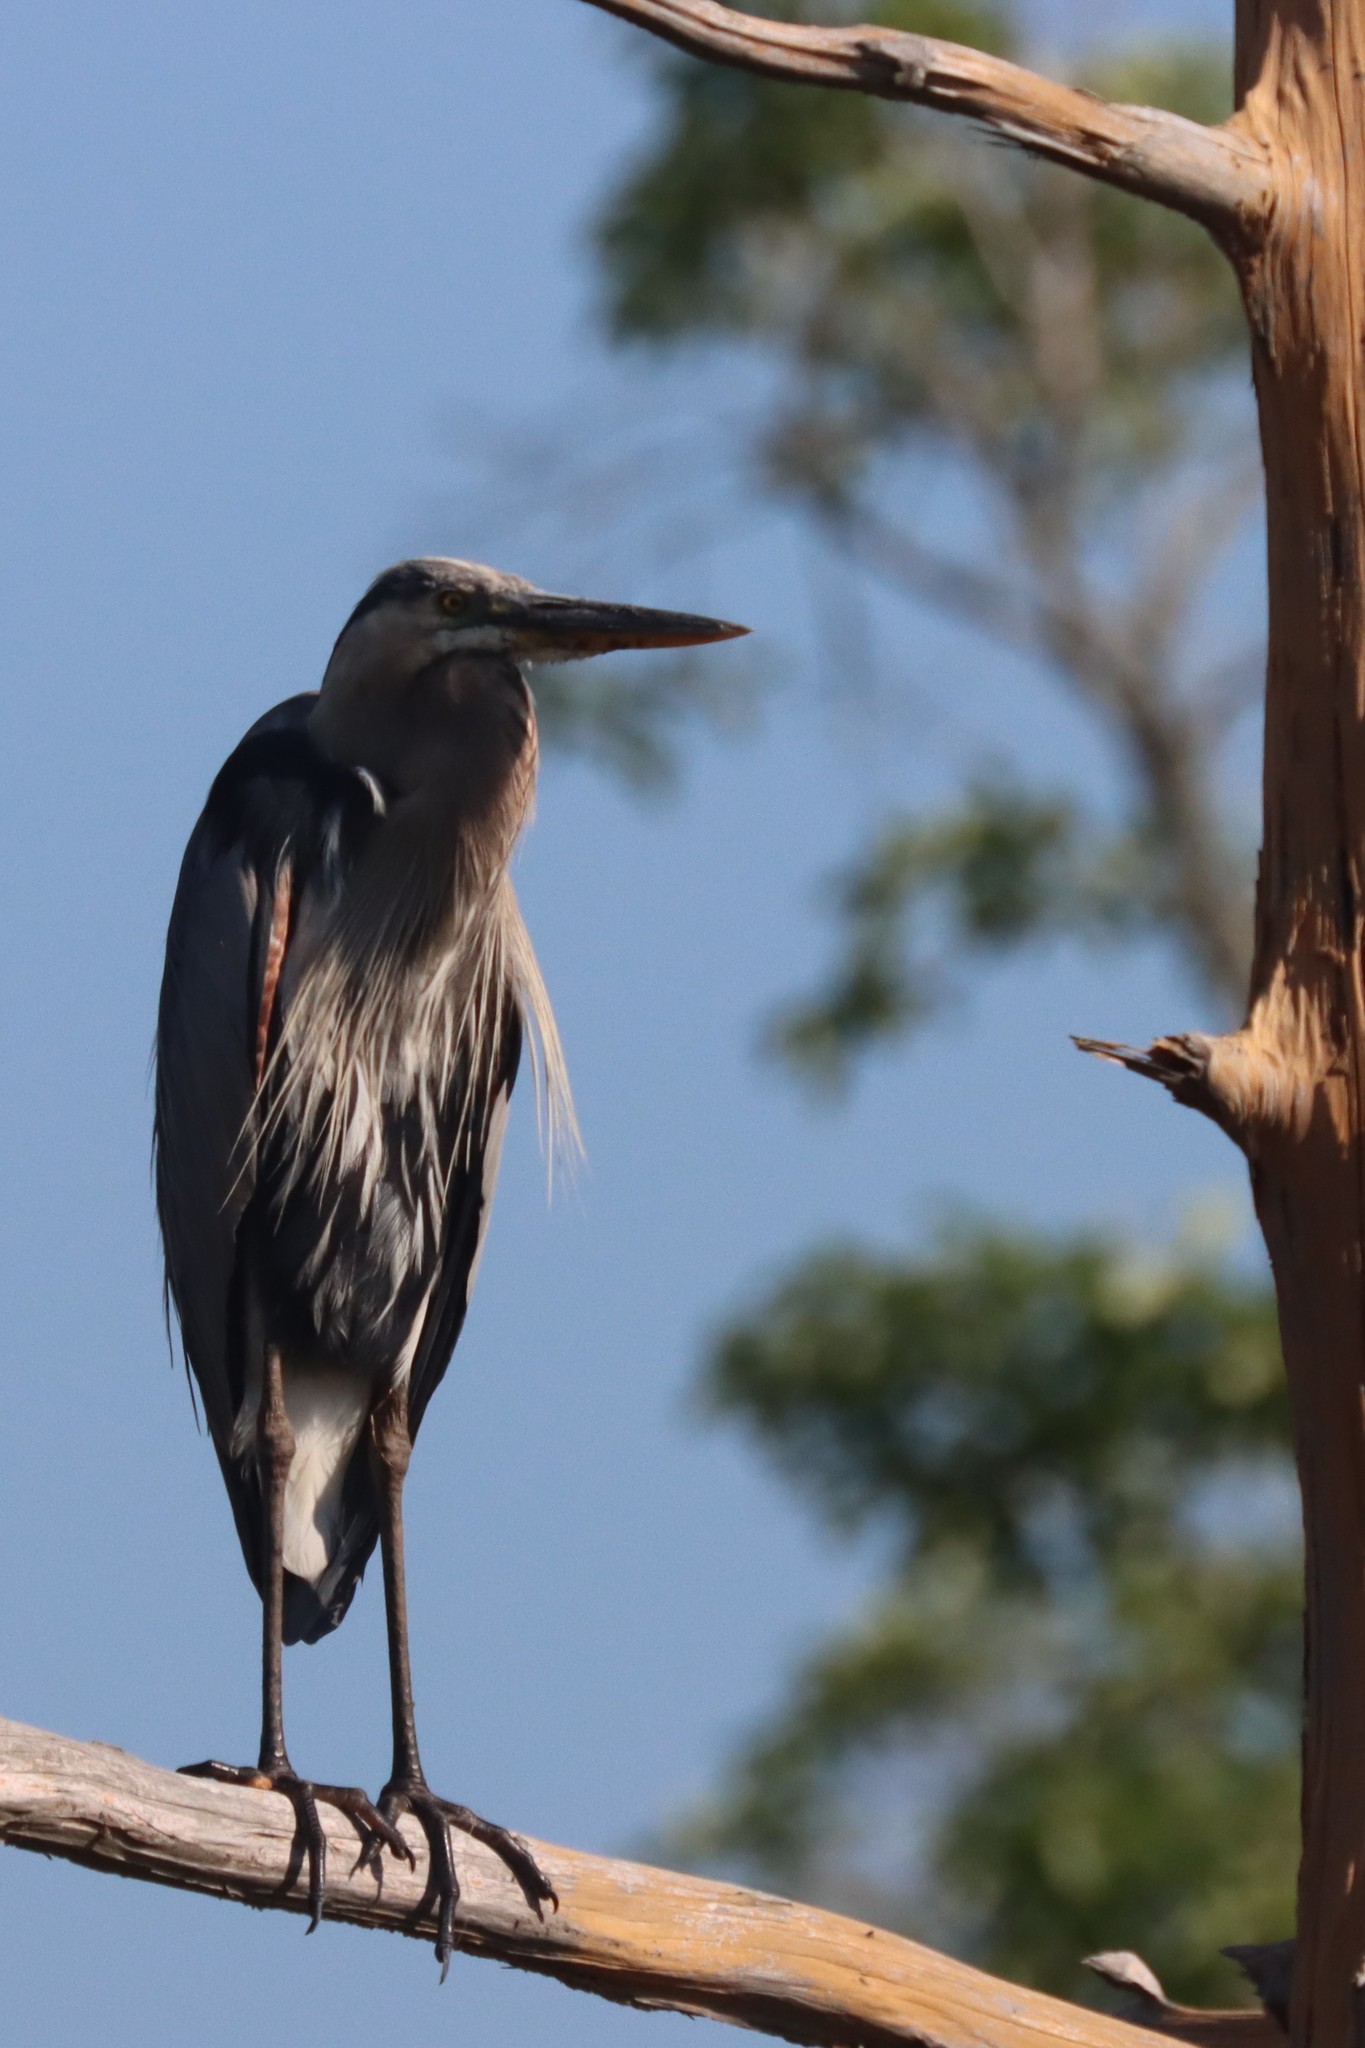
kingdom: Animalia
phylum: Chordata
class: Aves
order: Pelecaniformes
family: Ardeidae
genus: Ardea
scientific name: Ardea herodias
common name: Great blue heron
